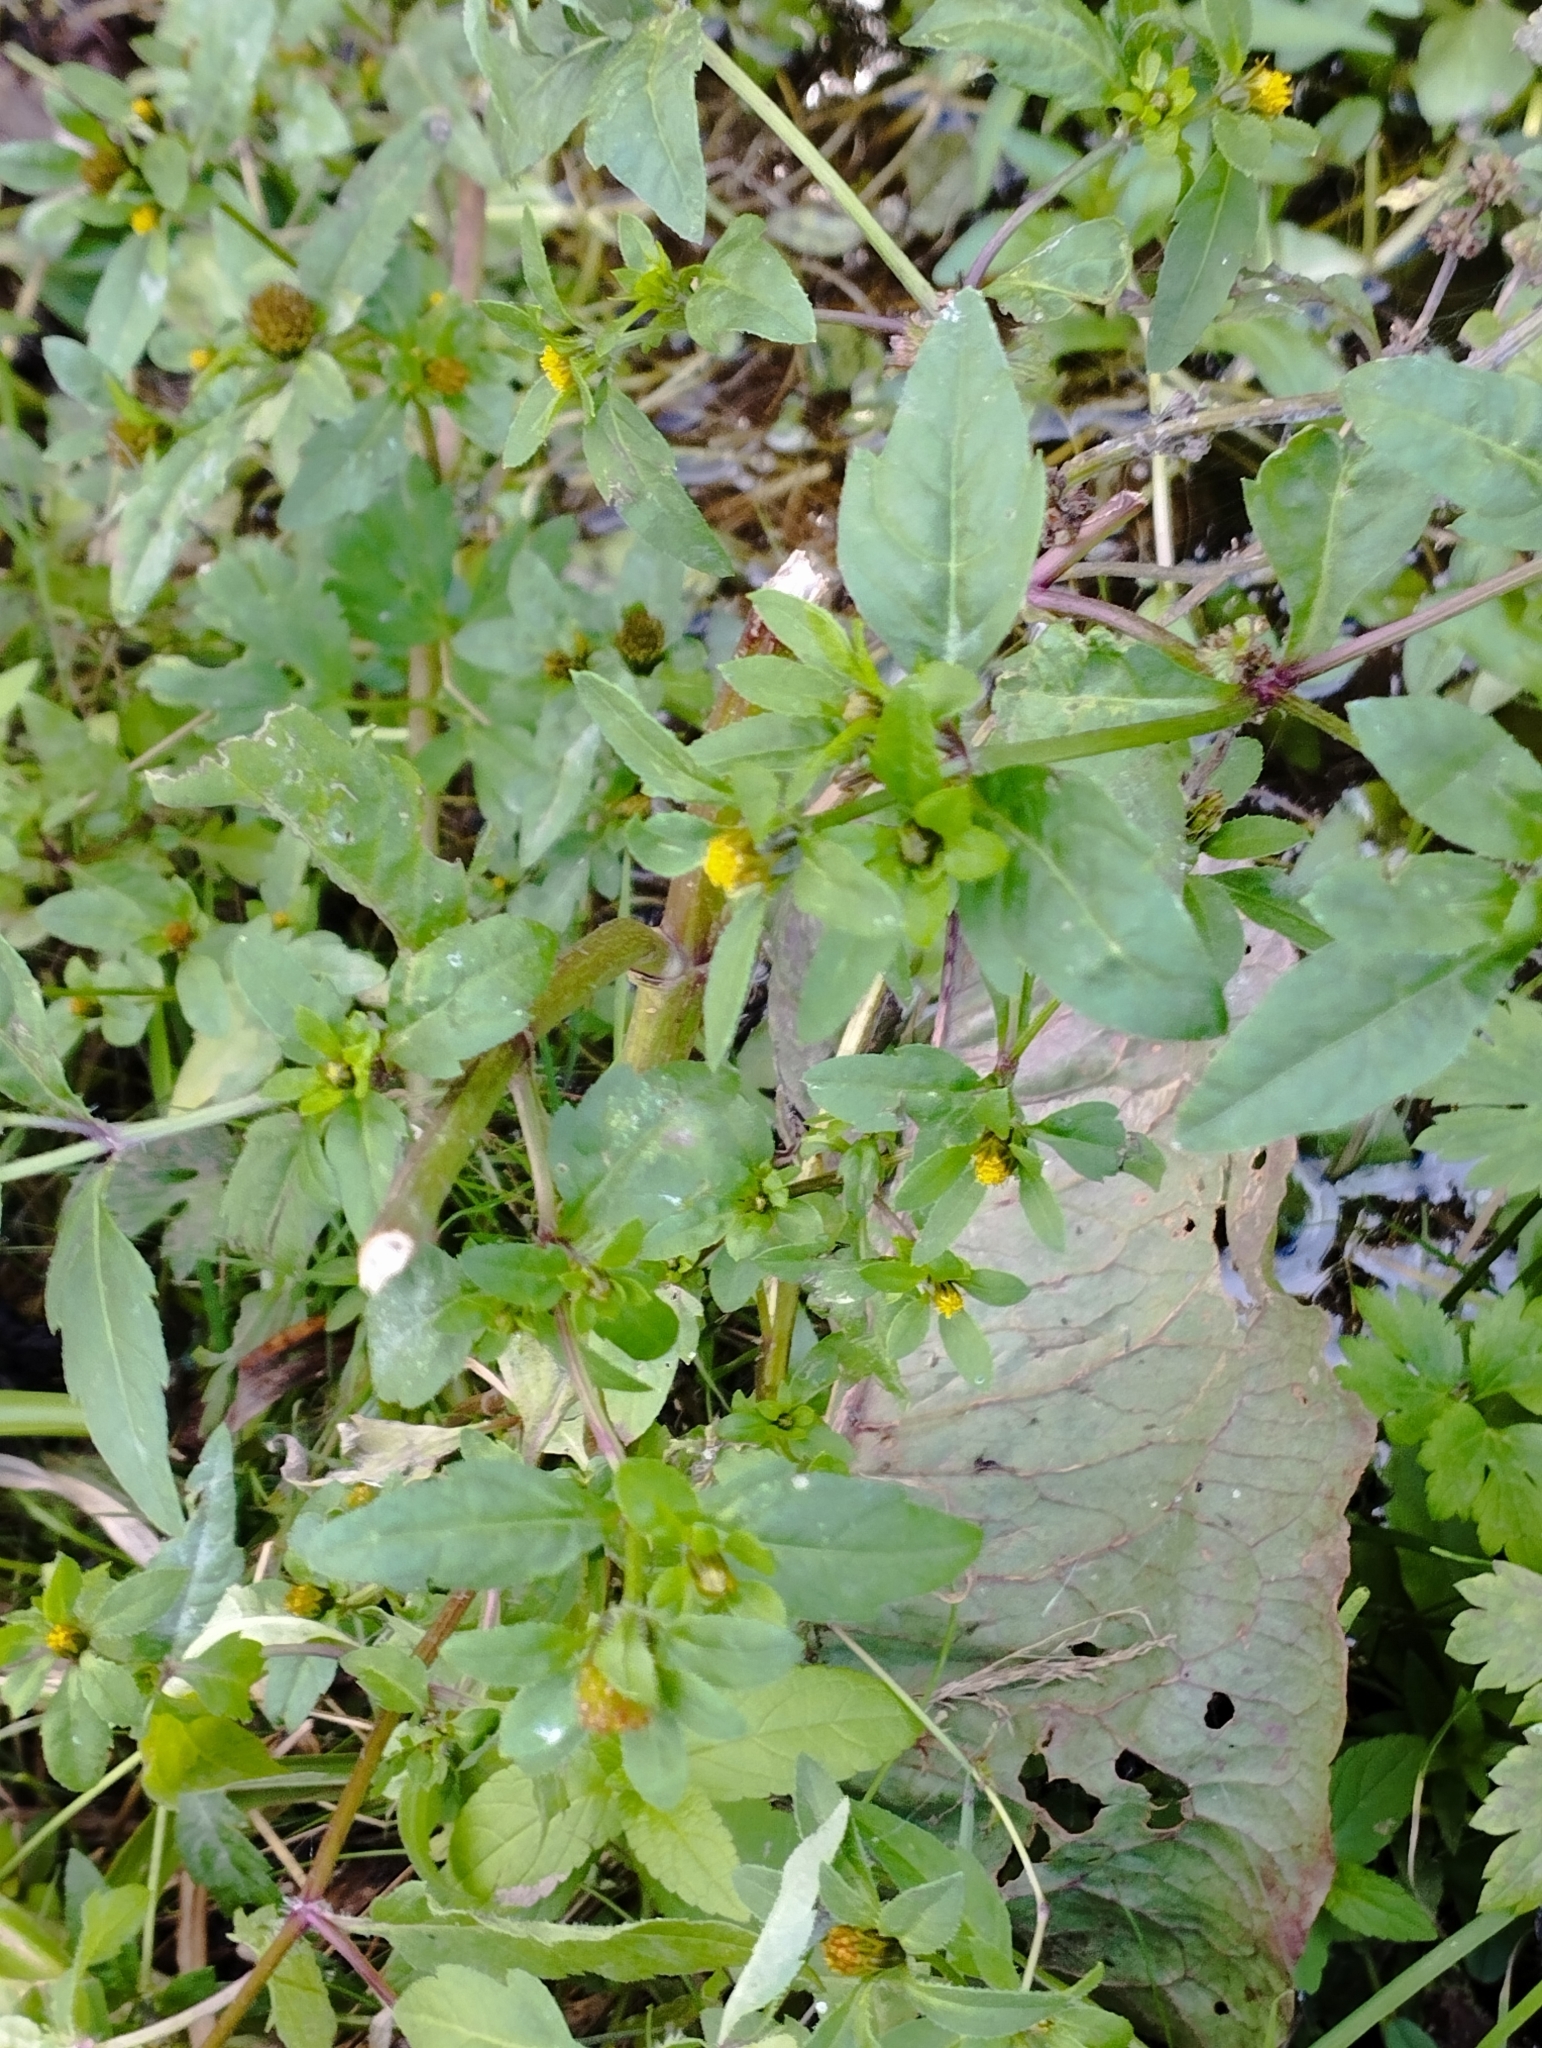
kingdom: Plantae
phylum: Tracheophyta
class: Magnoliopsida
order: Asterales
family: Asteraceae
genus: Bidens
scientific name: Bidens tripartita
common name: Trifid bur-marigold
